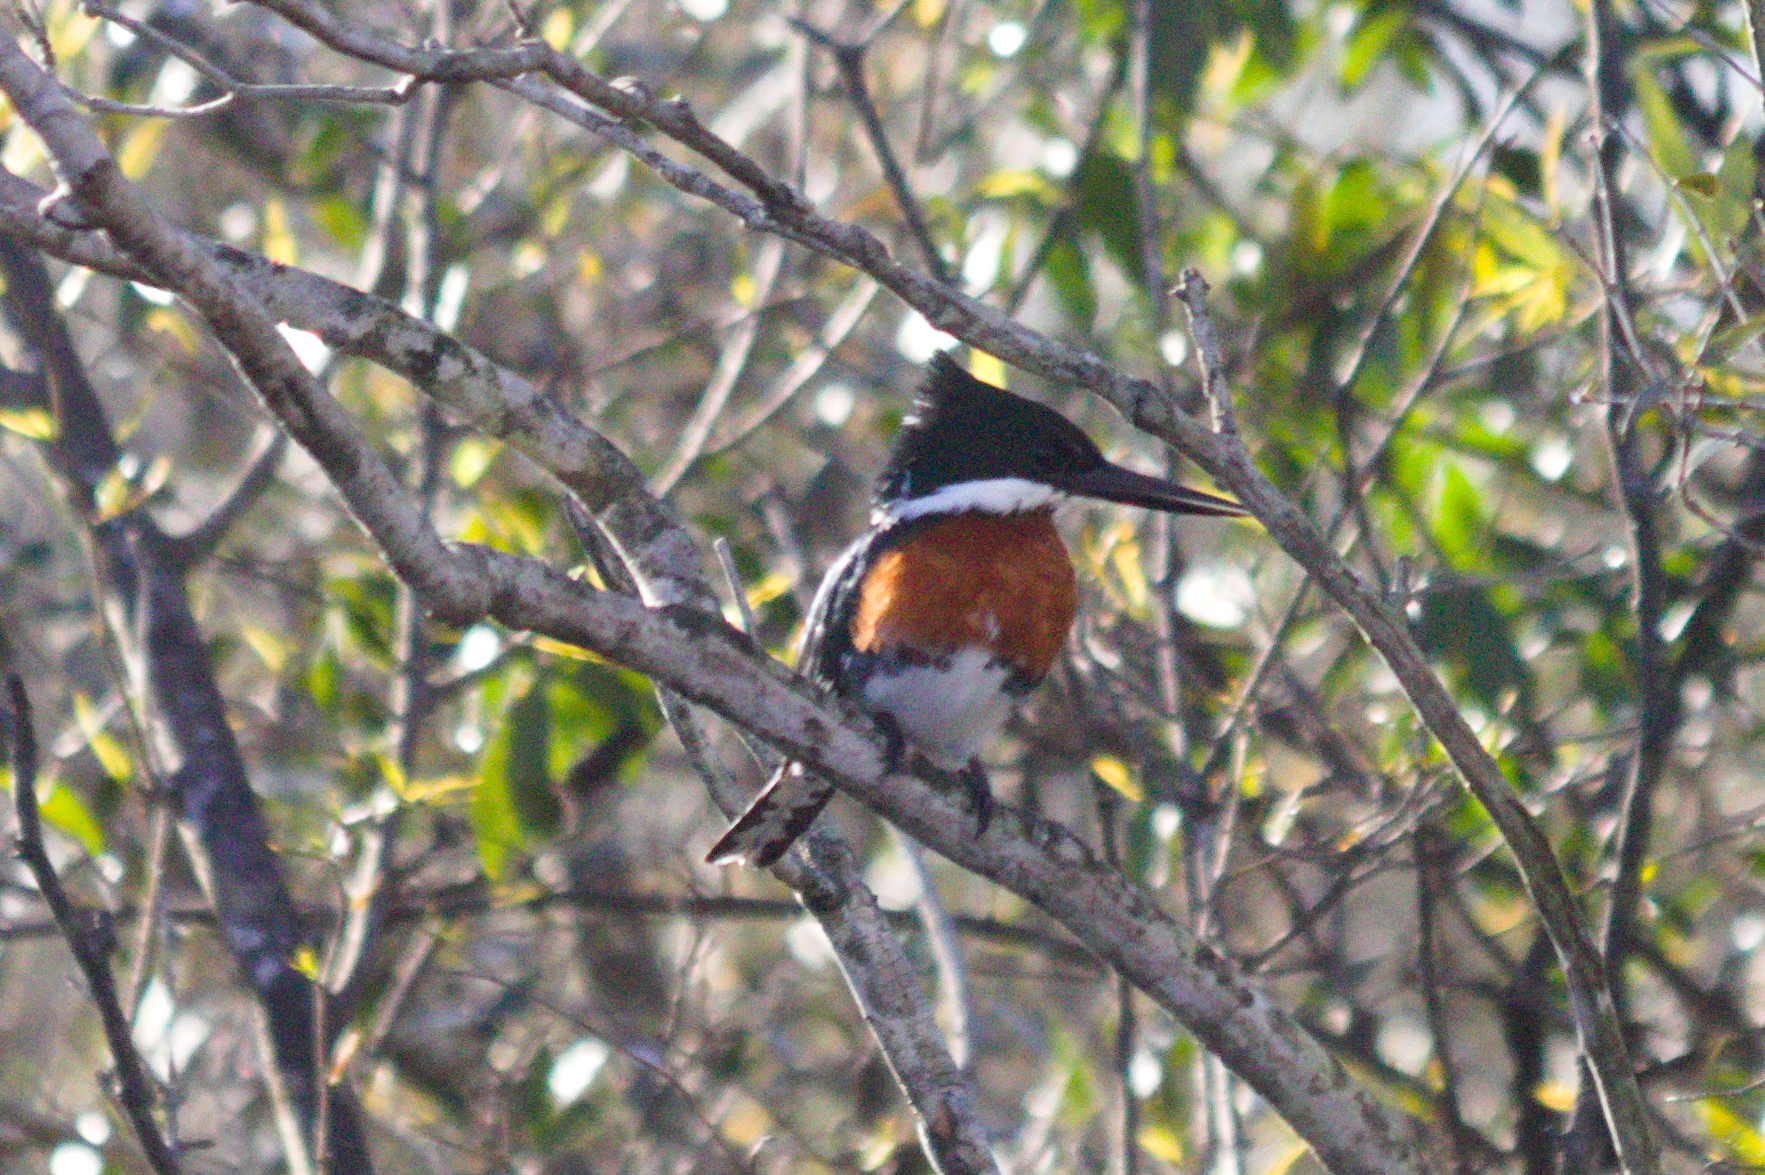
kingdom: Animalia
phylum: Chordata
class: Aves
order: Coraciiformes
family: Alcedinidae
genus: Chloroceryle
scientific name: Chloroceryle americana
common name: Green kingfisher
